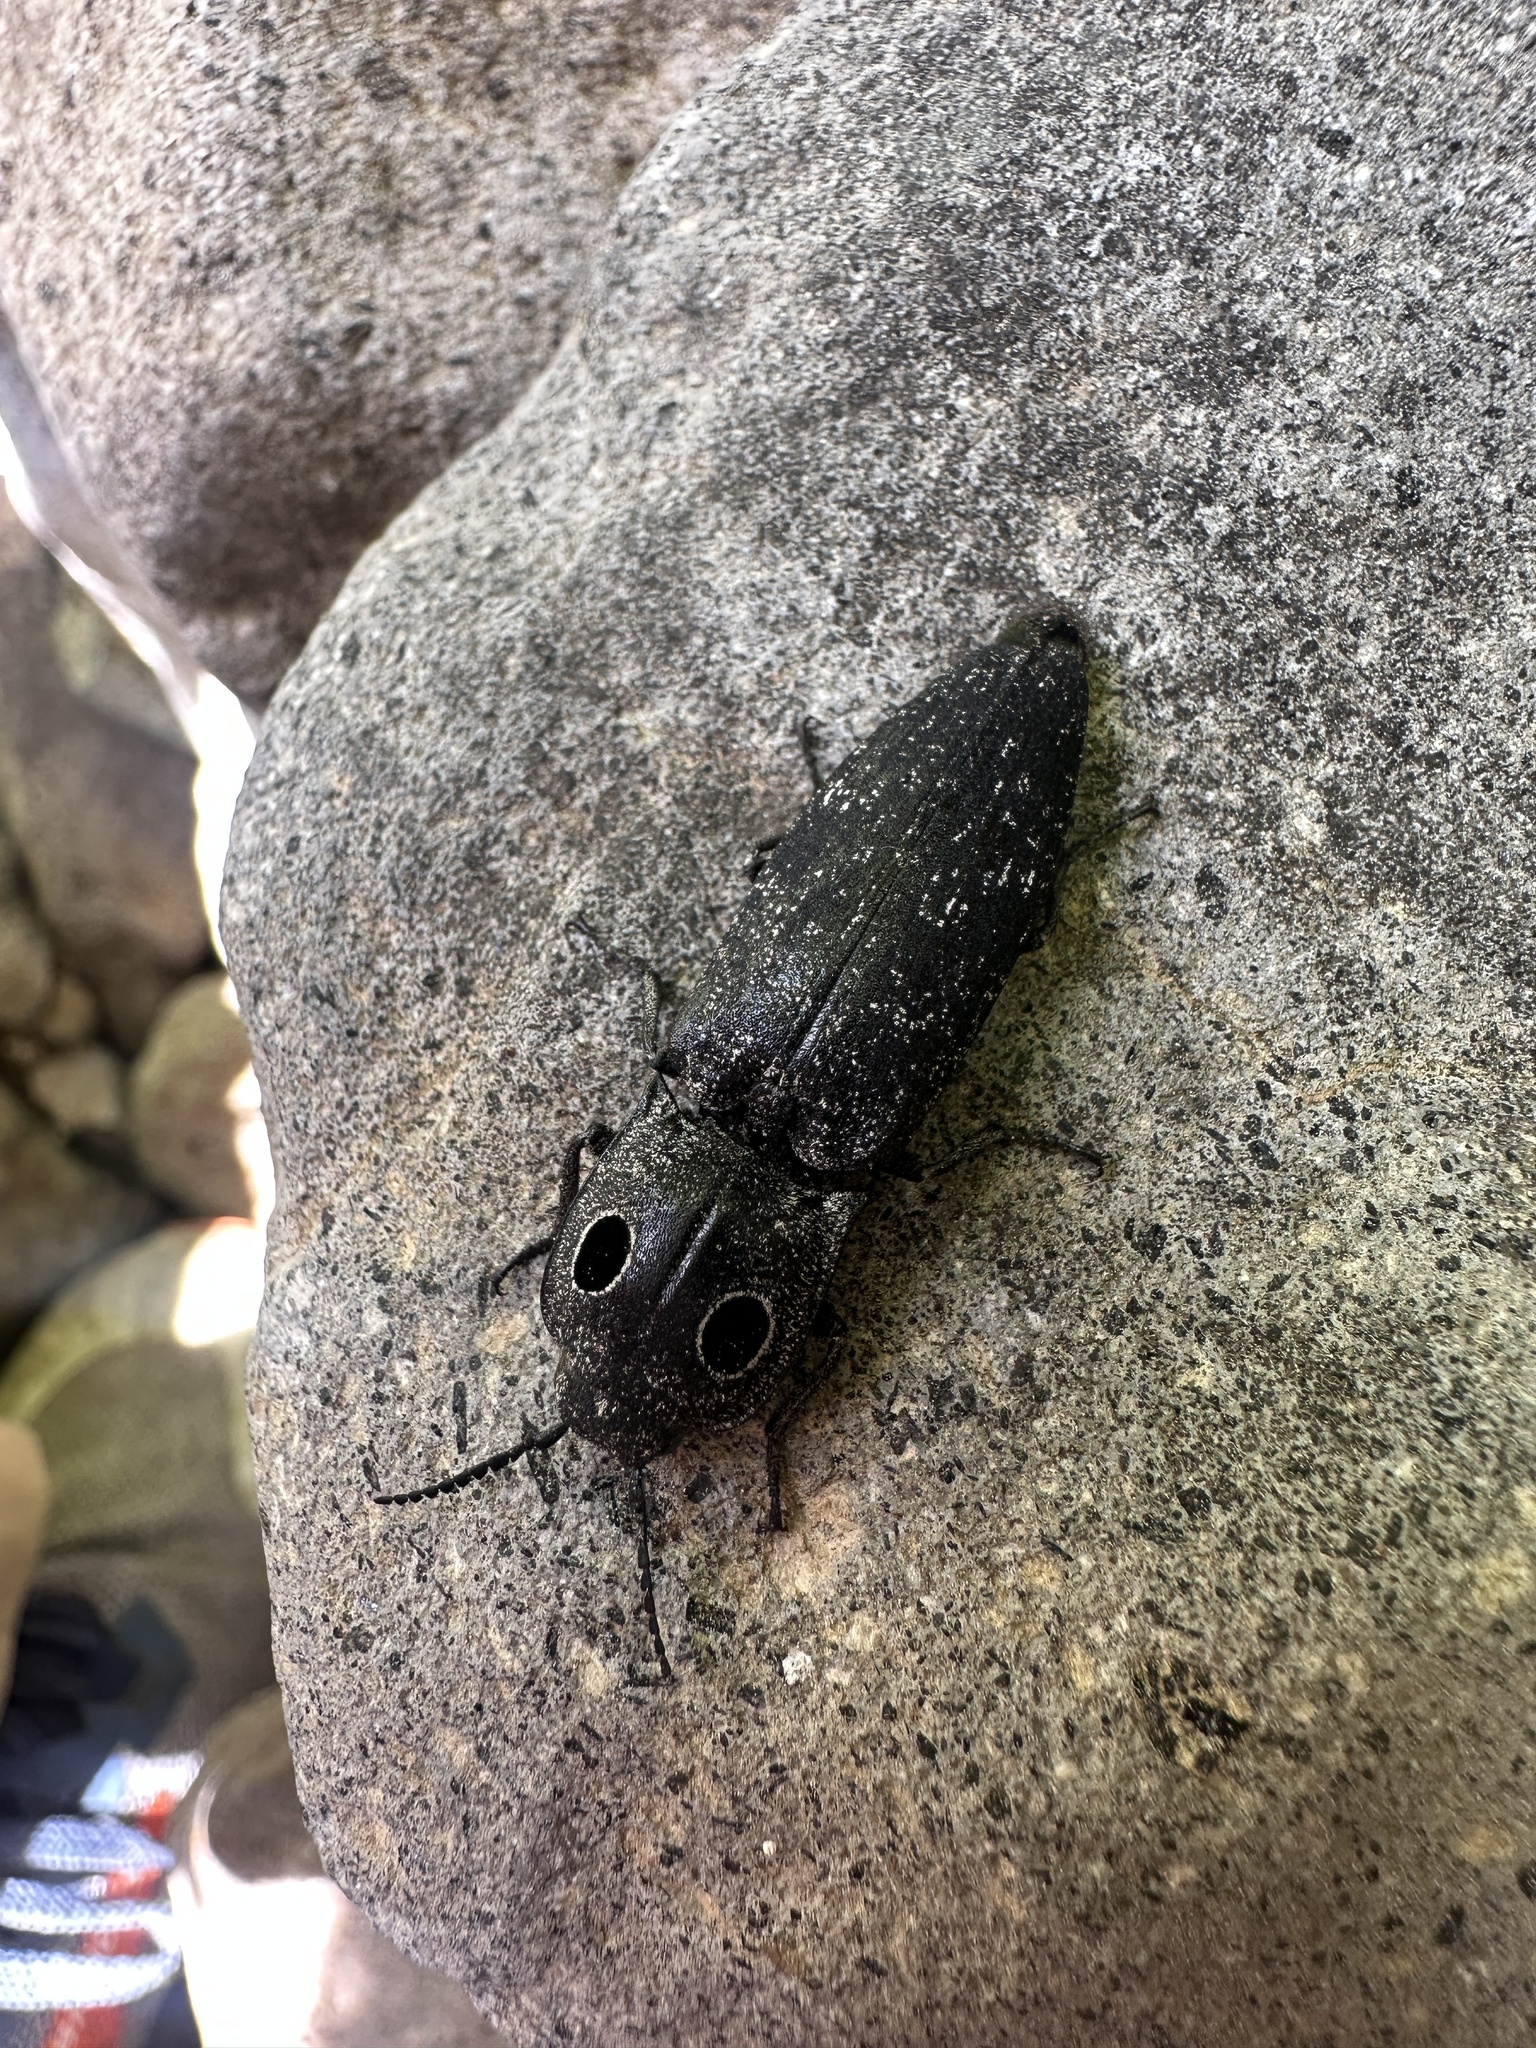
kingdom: Animalia
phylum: Arthropoda
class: Insecta
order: Coleoptera
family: Elateridae
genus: Alaus
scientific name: Alaus melanops
